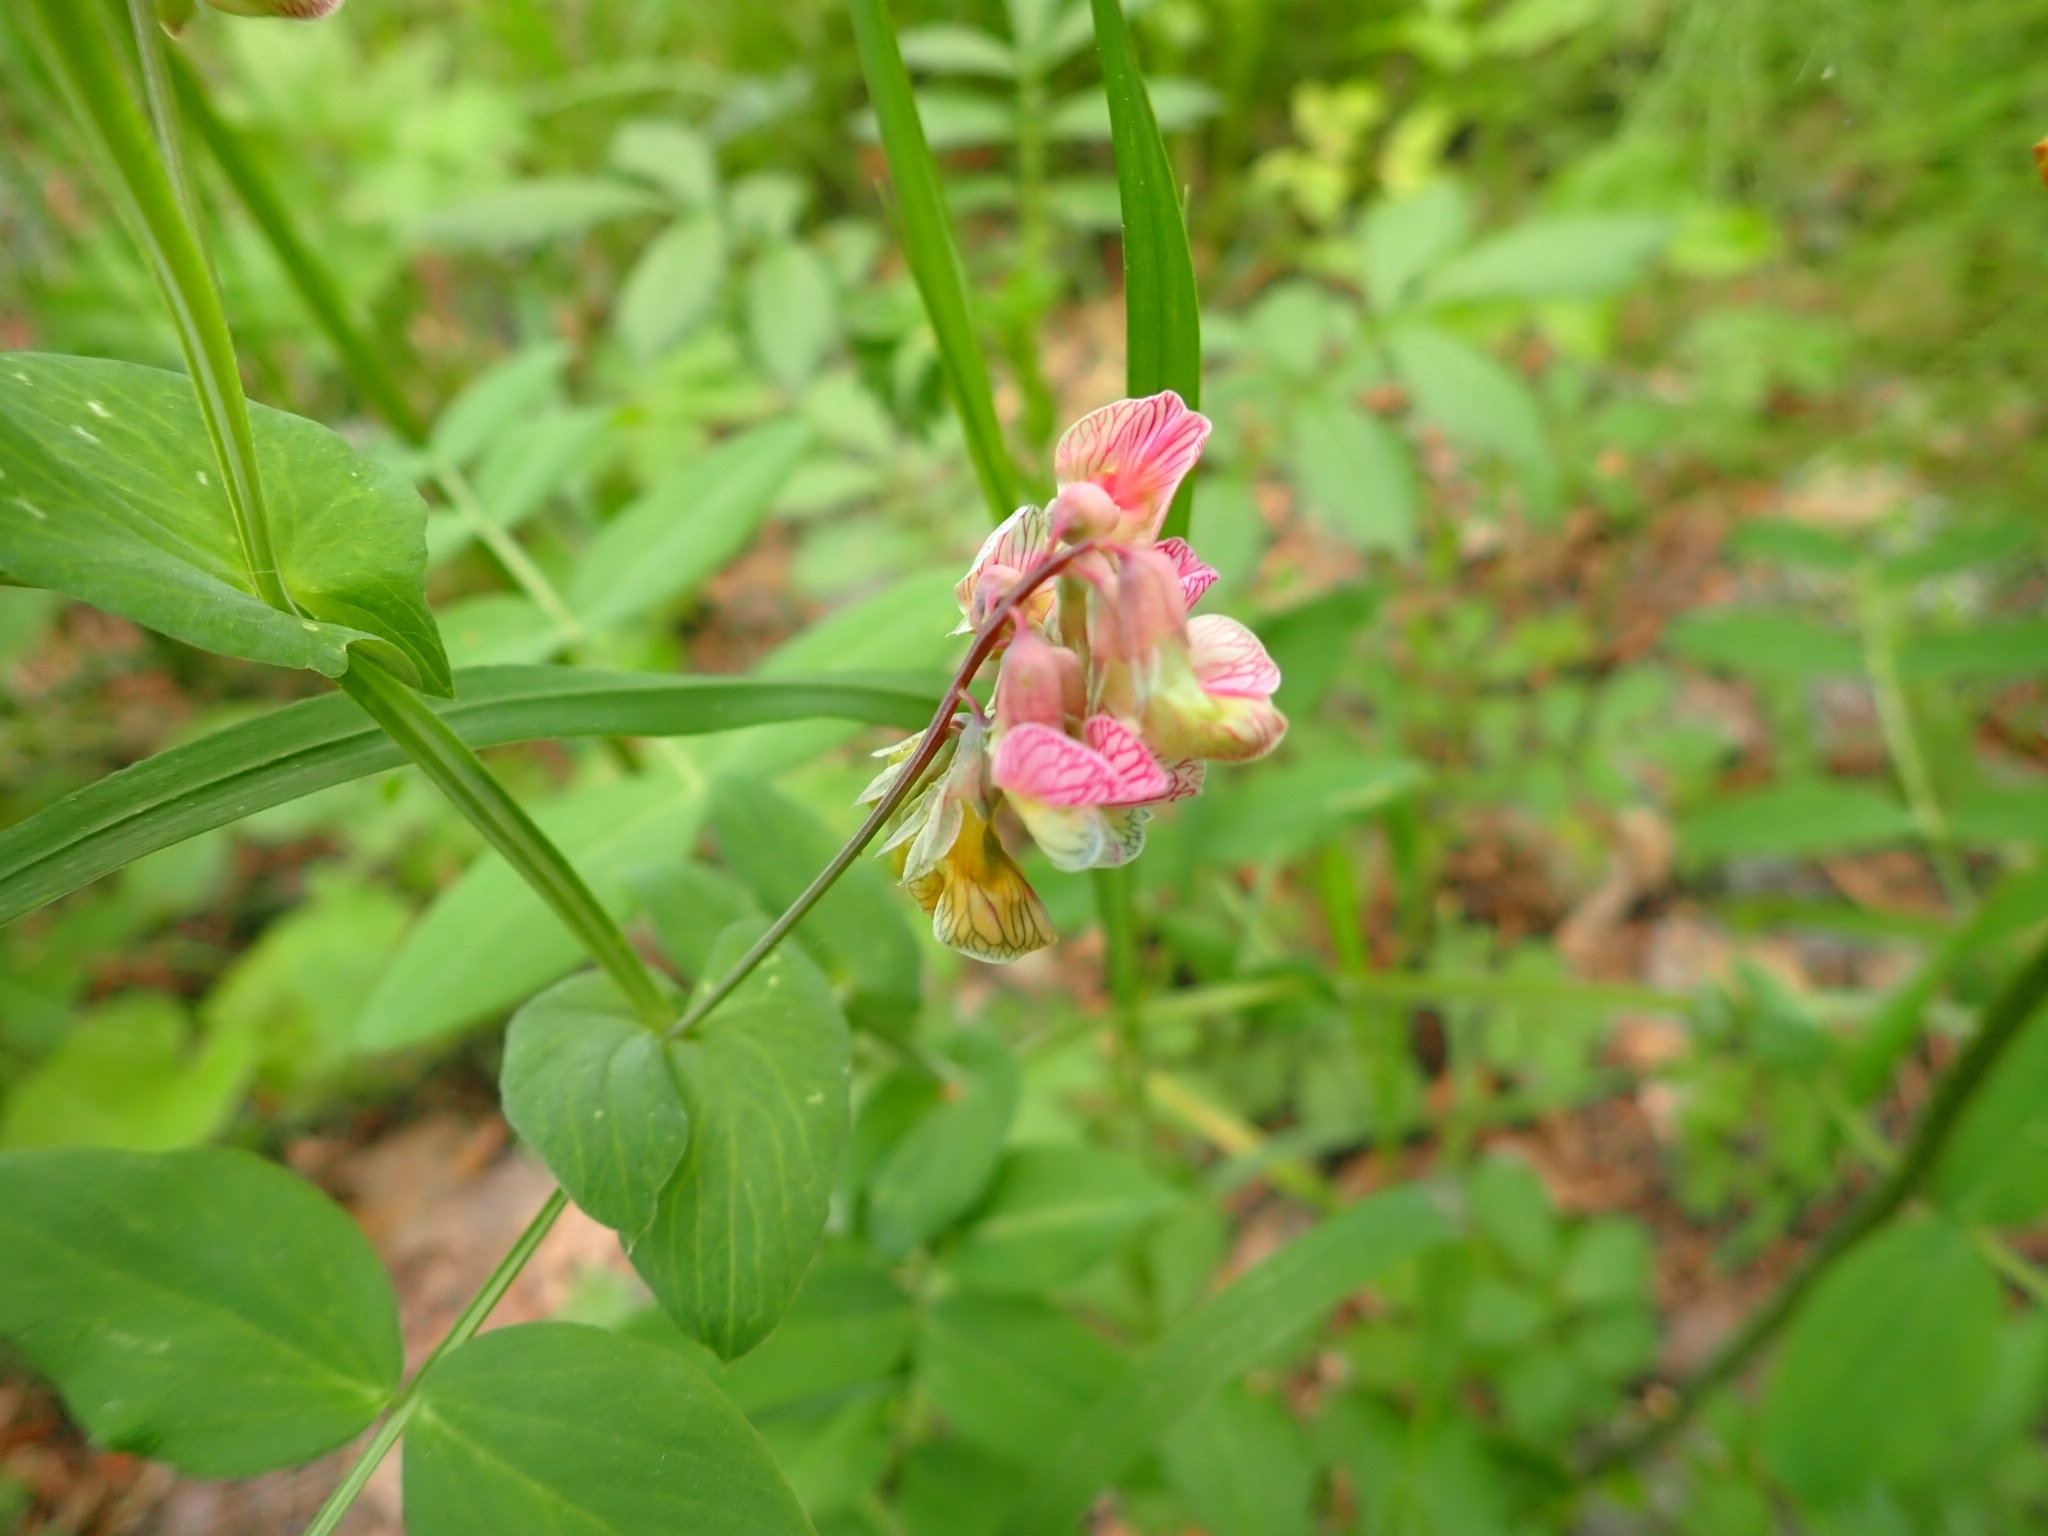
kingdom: Plantae
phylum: Tracheophyta
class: Magnoliopsida
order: Fabales
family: Fabaceae
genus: Lathyrus
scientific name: Lathyrus pisiformis
